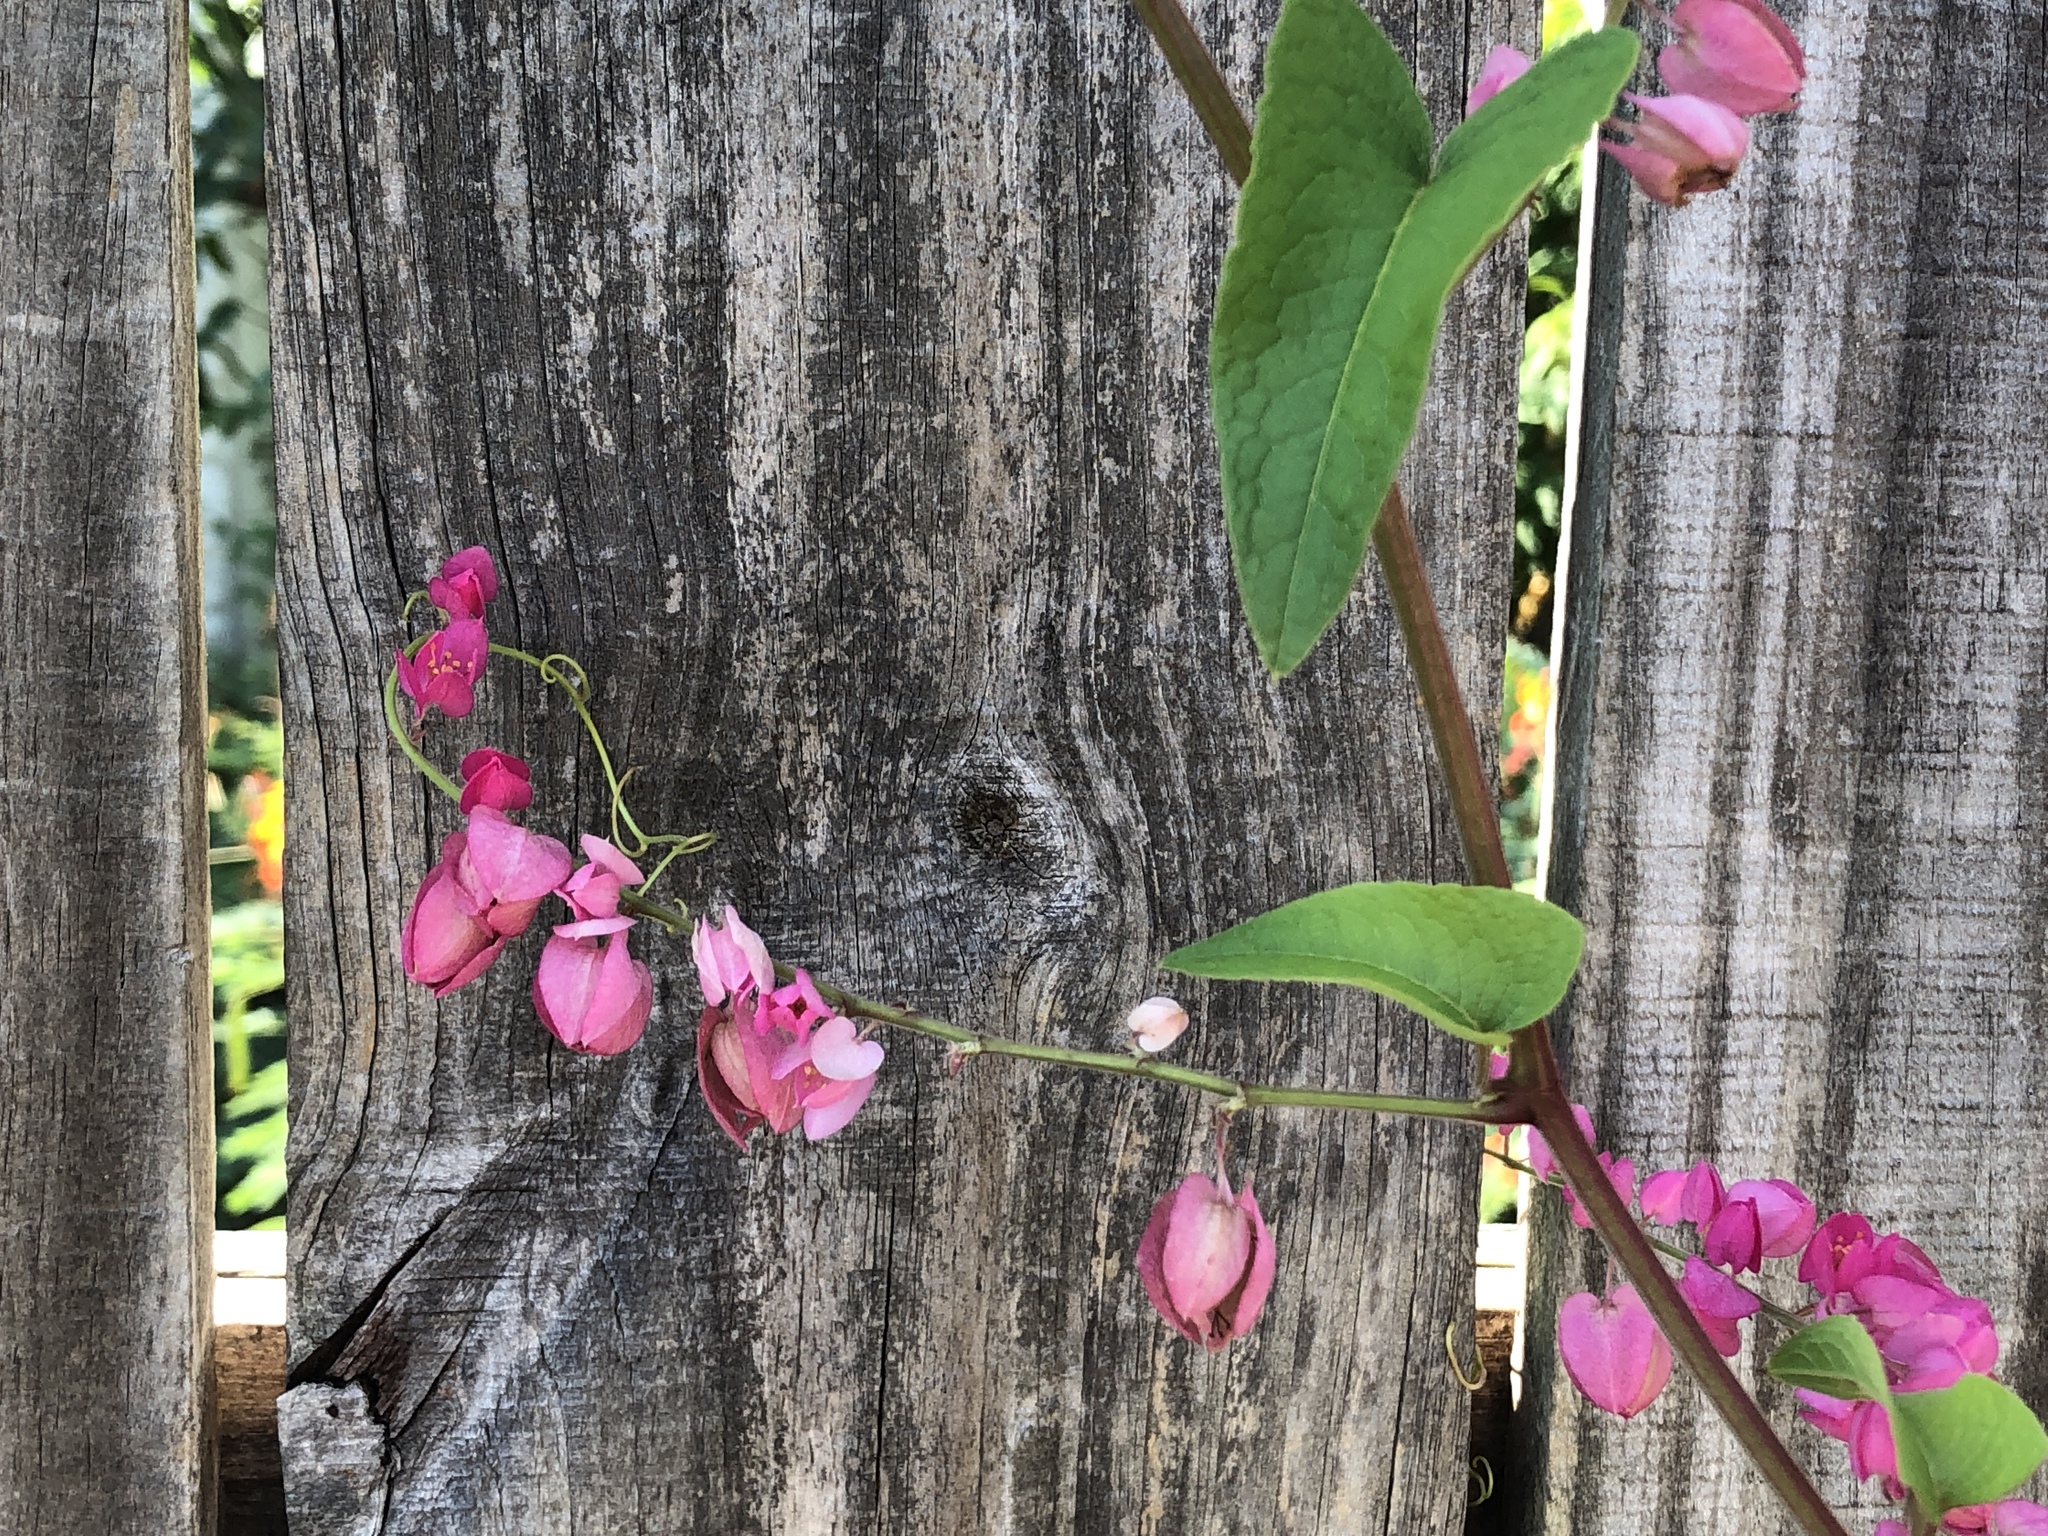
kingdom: Plantae
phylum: Tracheophyta
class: Magnoliopsida
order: Caryophyllales
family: Polygonaceae
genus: Antigonon
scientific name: Antigonon leptopus
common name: Coral vine
